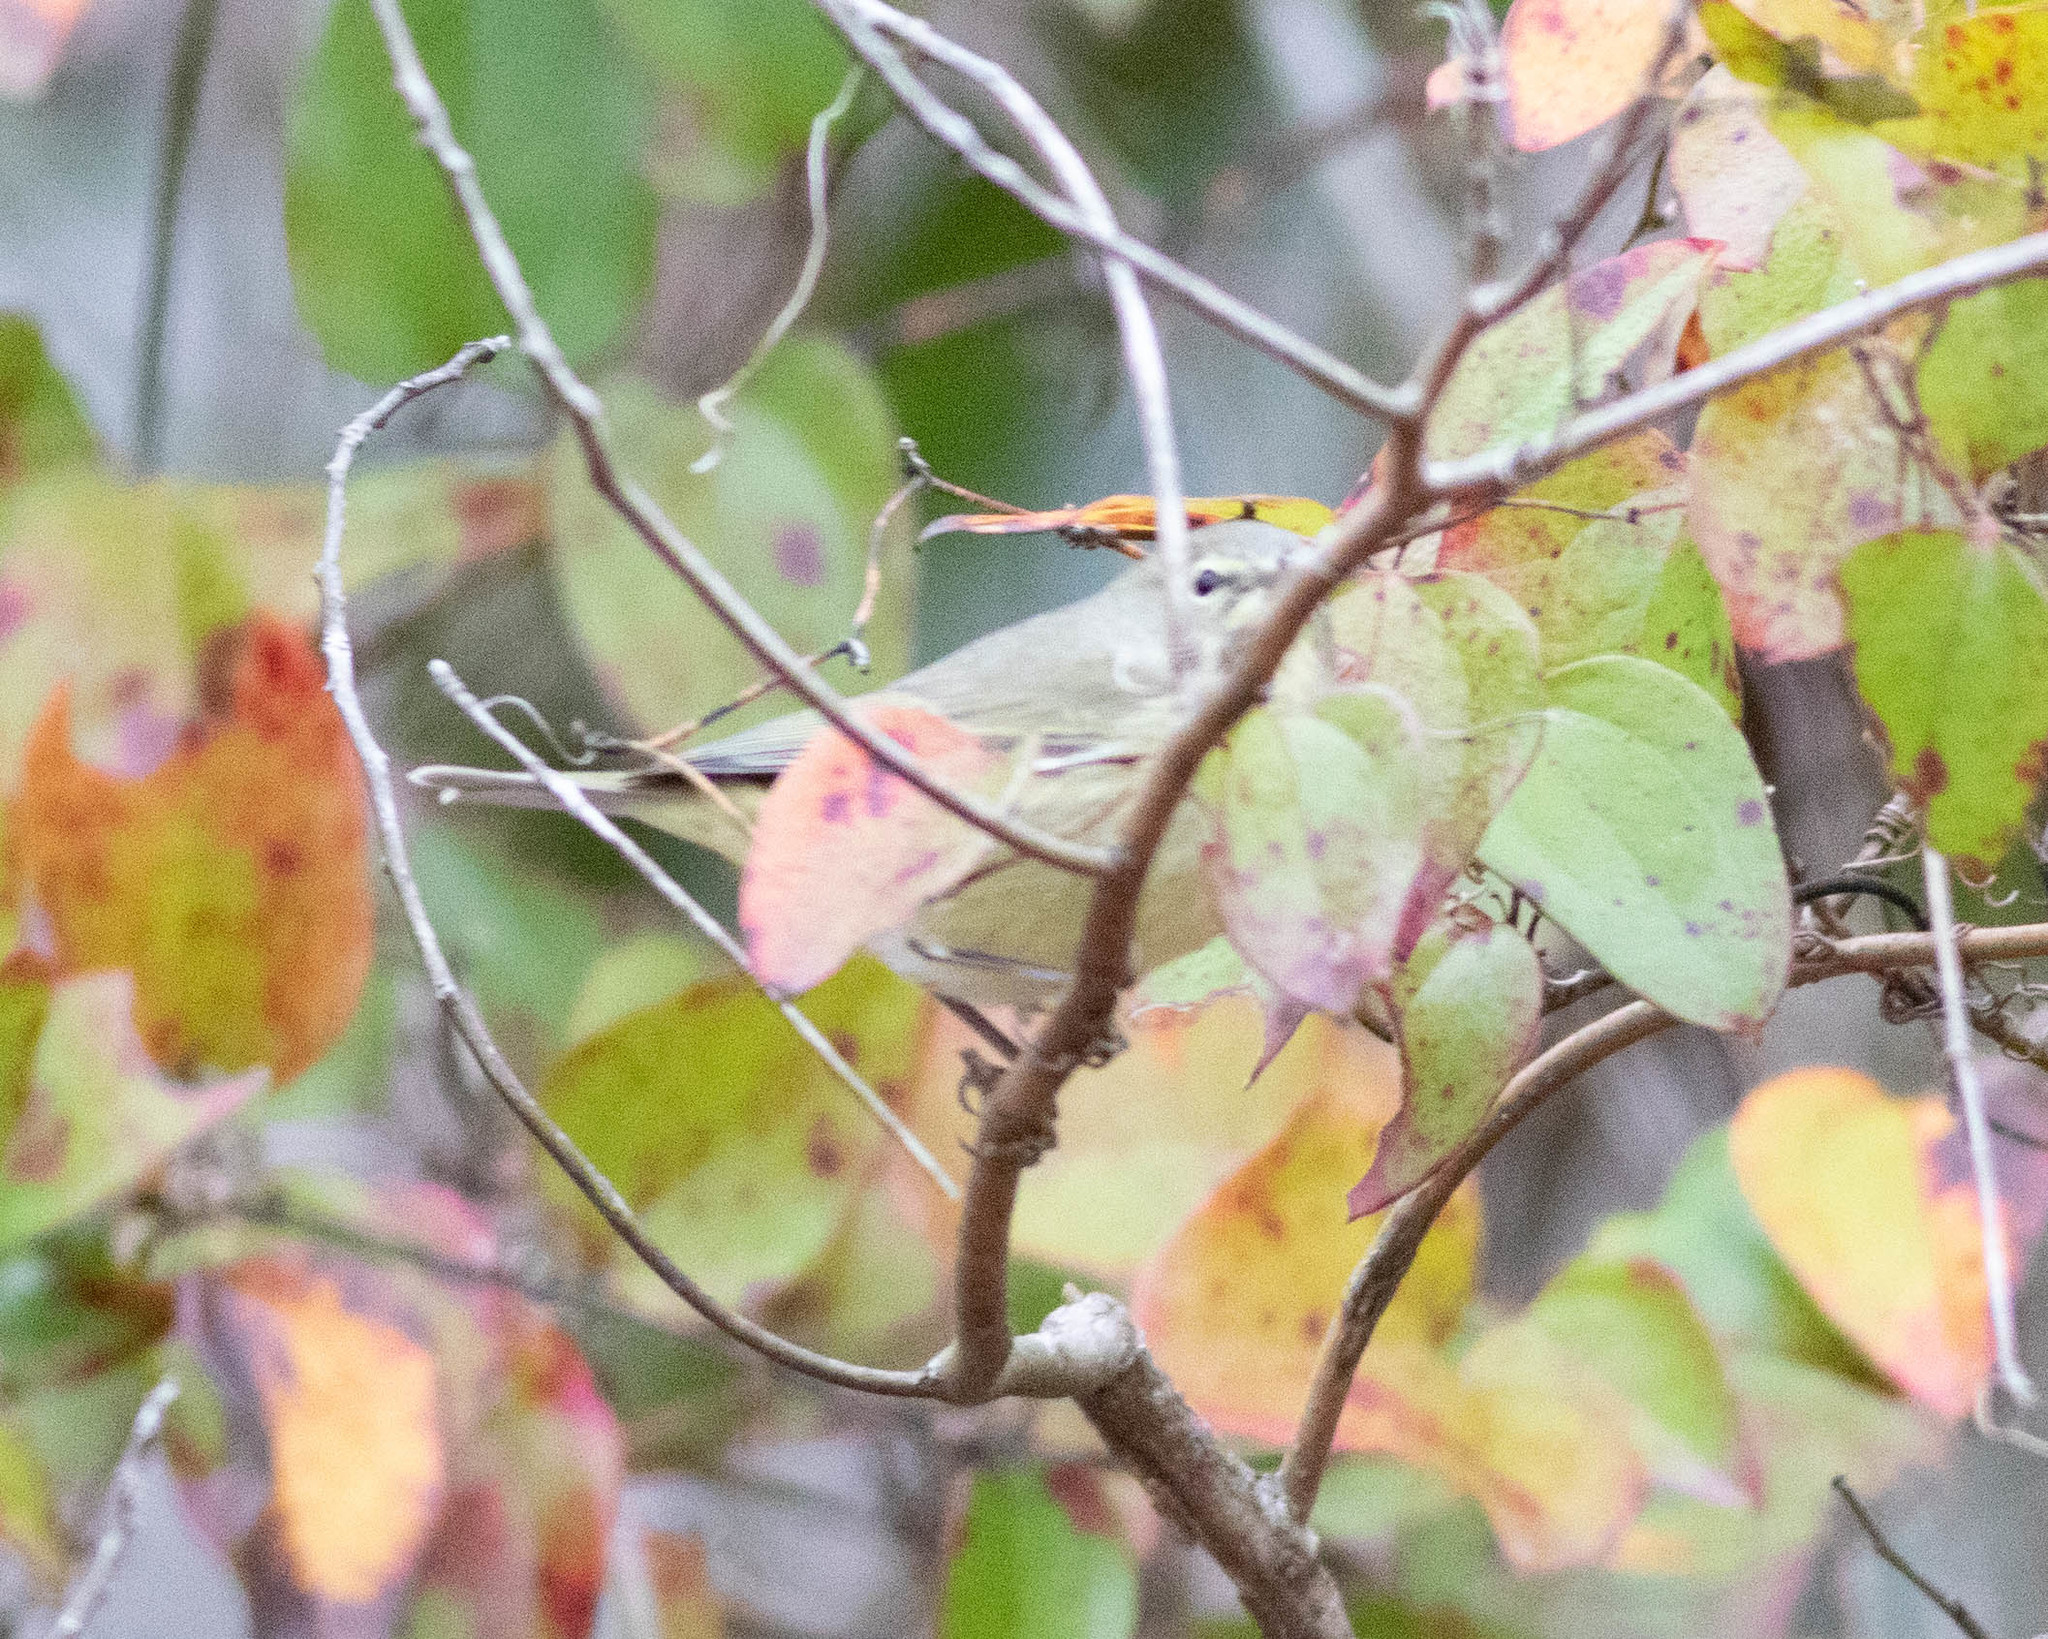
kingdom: Animalia
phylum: Chordata
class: Aves
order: Passeriformes
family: Parulidae
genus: Leiothlypis
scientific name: Leiothlypis celata
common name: Orange-crowned warbler
